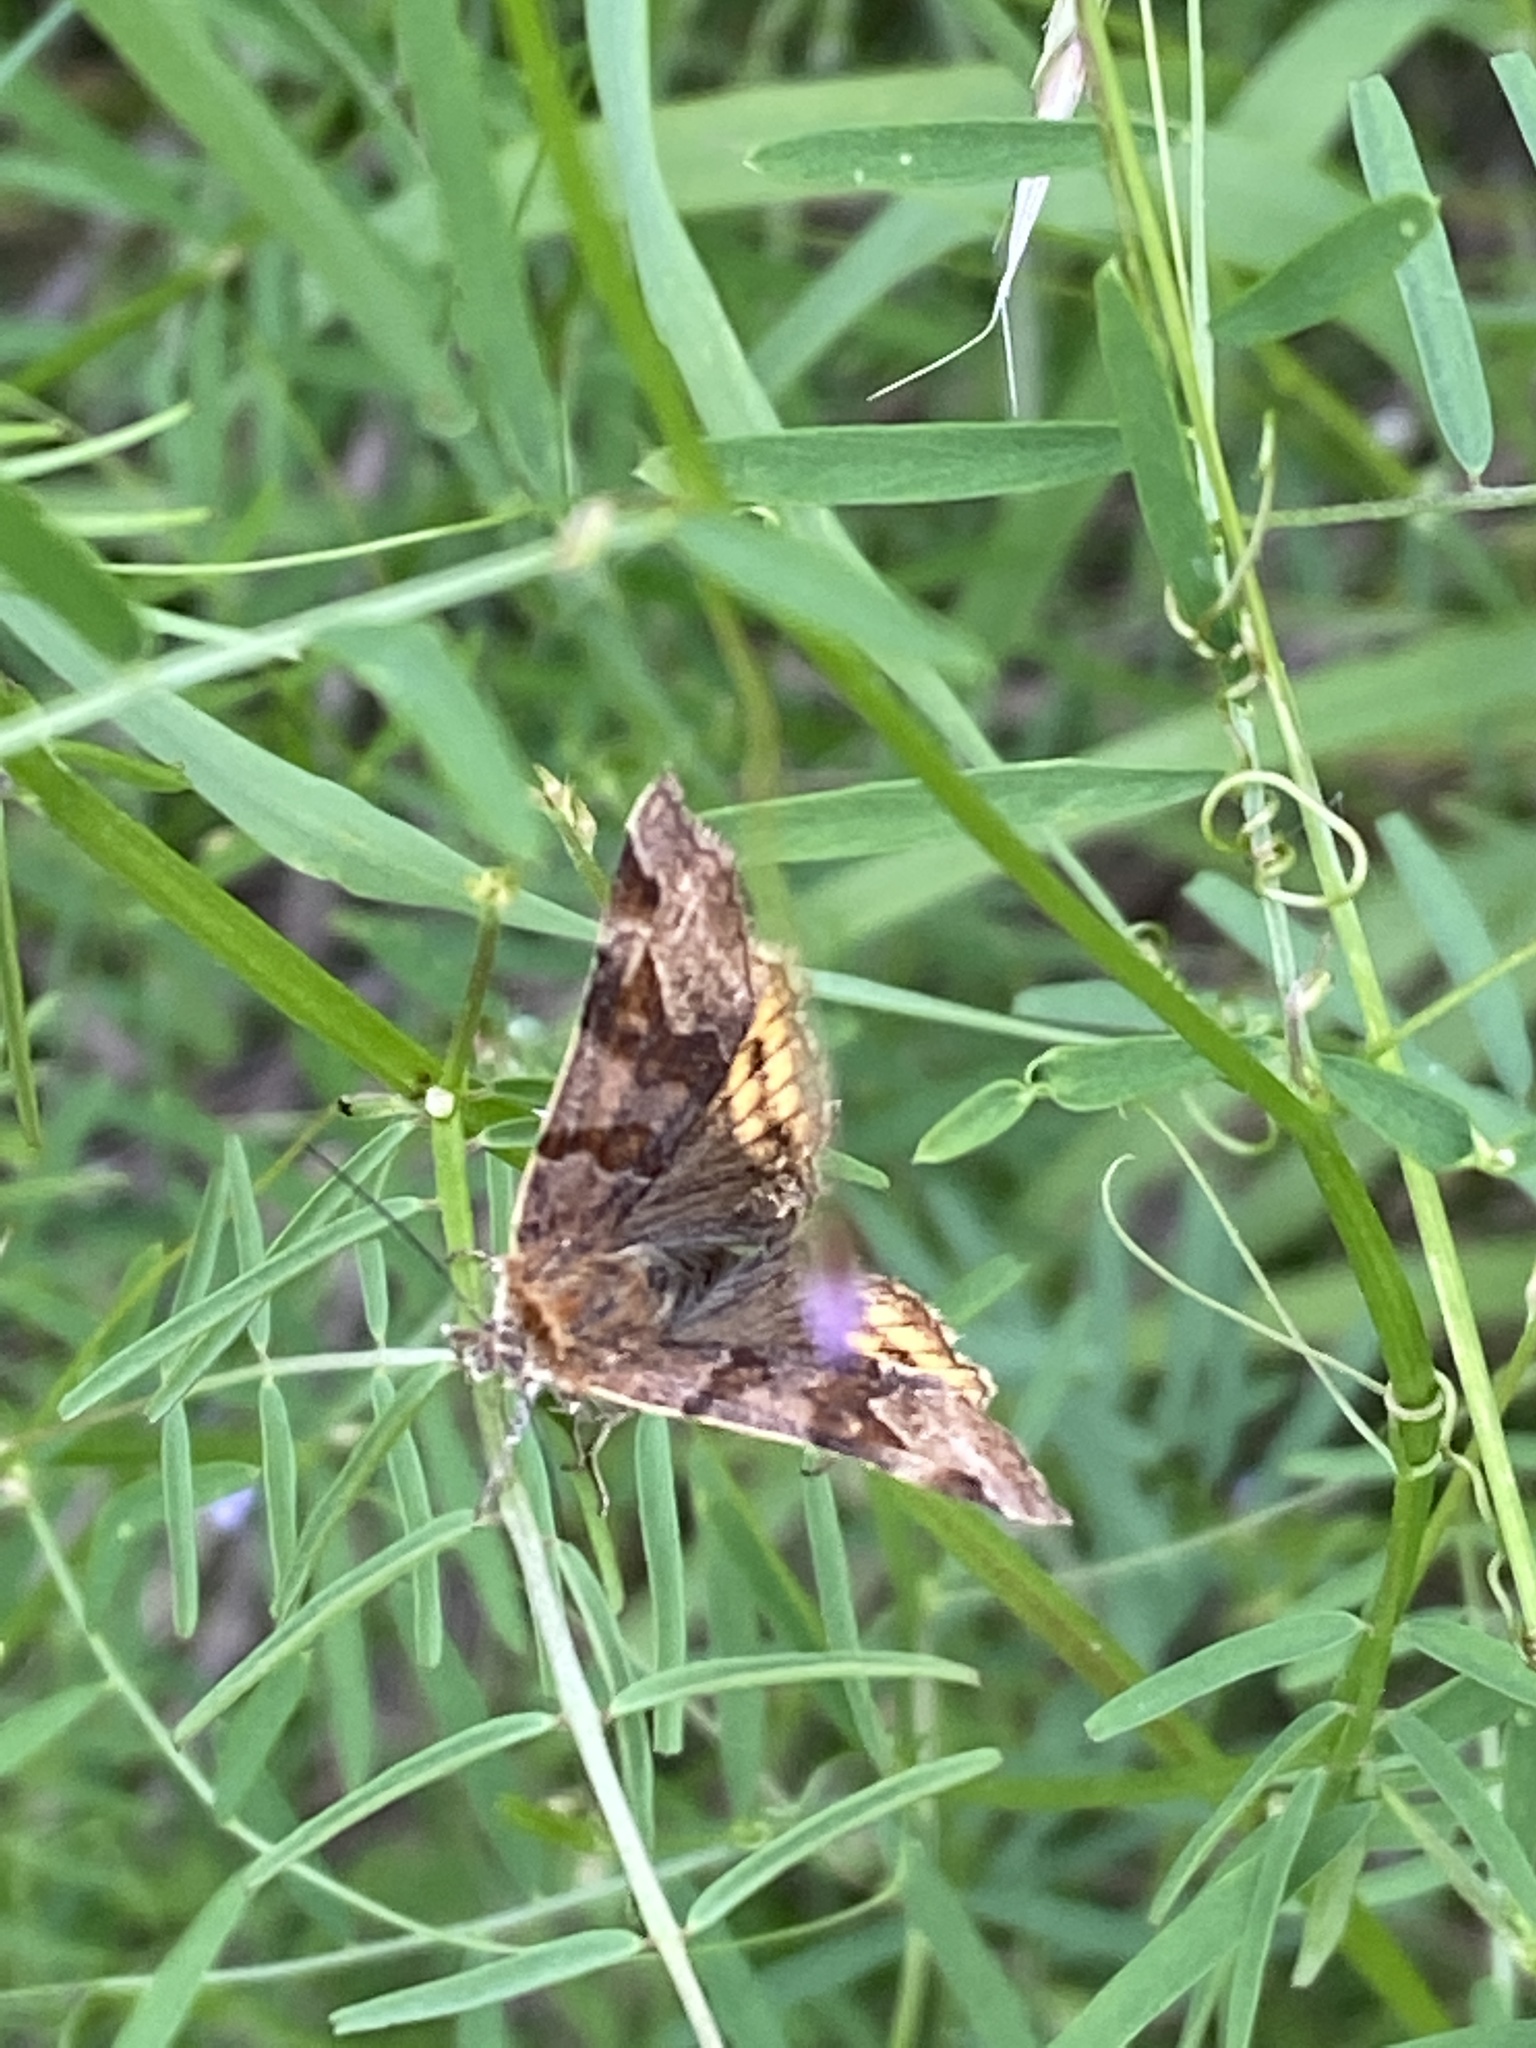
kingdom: Animalia
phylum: Arthropoda
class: Insecta
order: Lepidoptera
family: Erebidae
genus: Euclidia
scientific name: Euclidia glyphica
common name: Burnet companion
